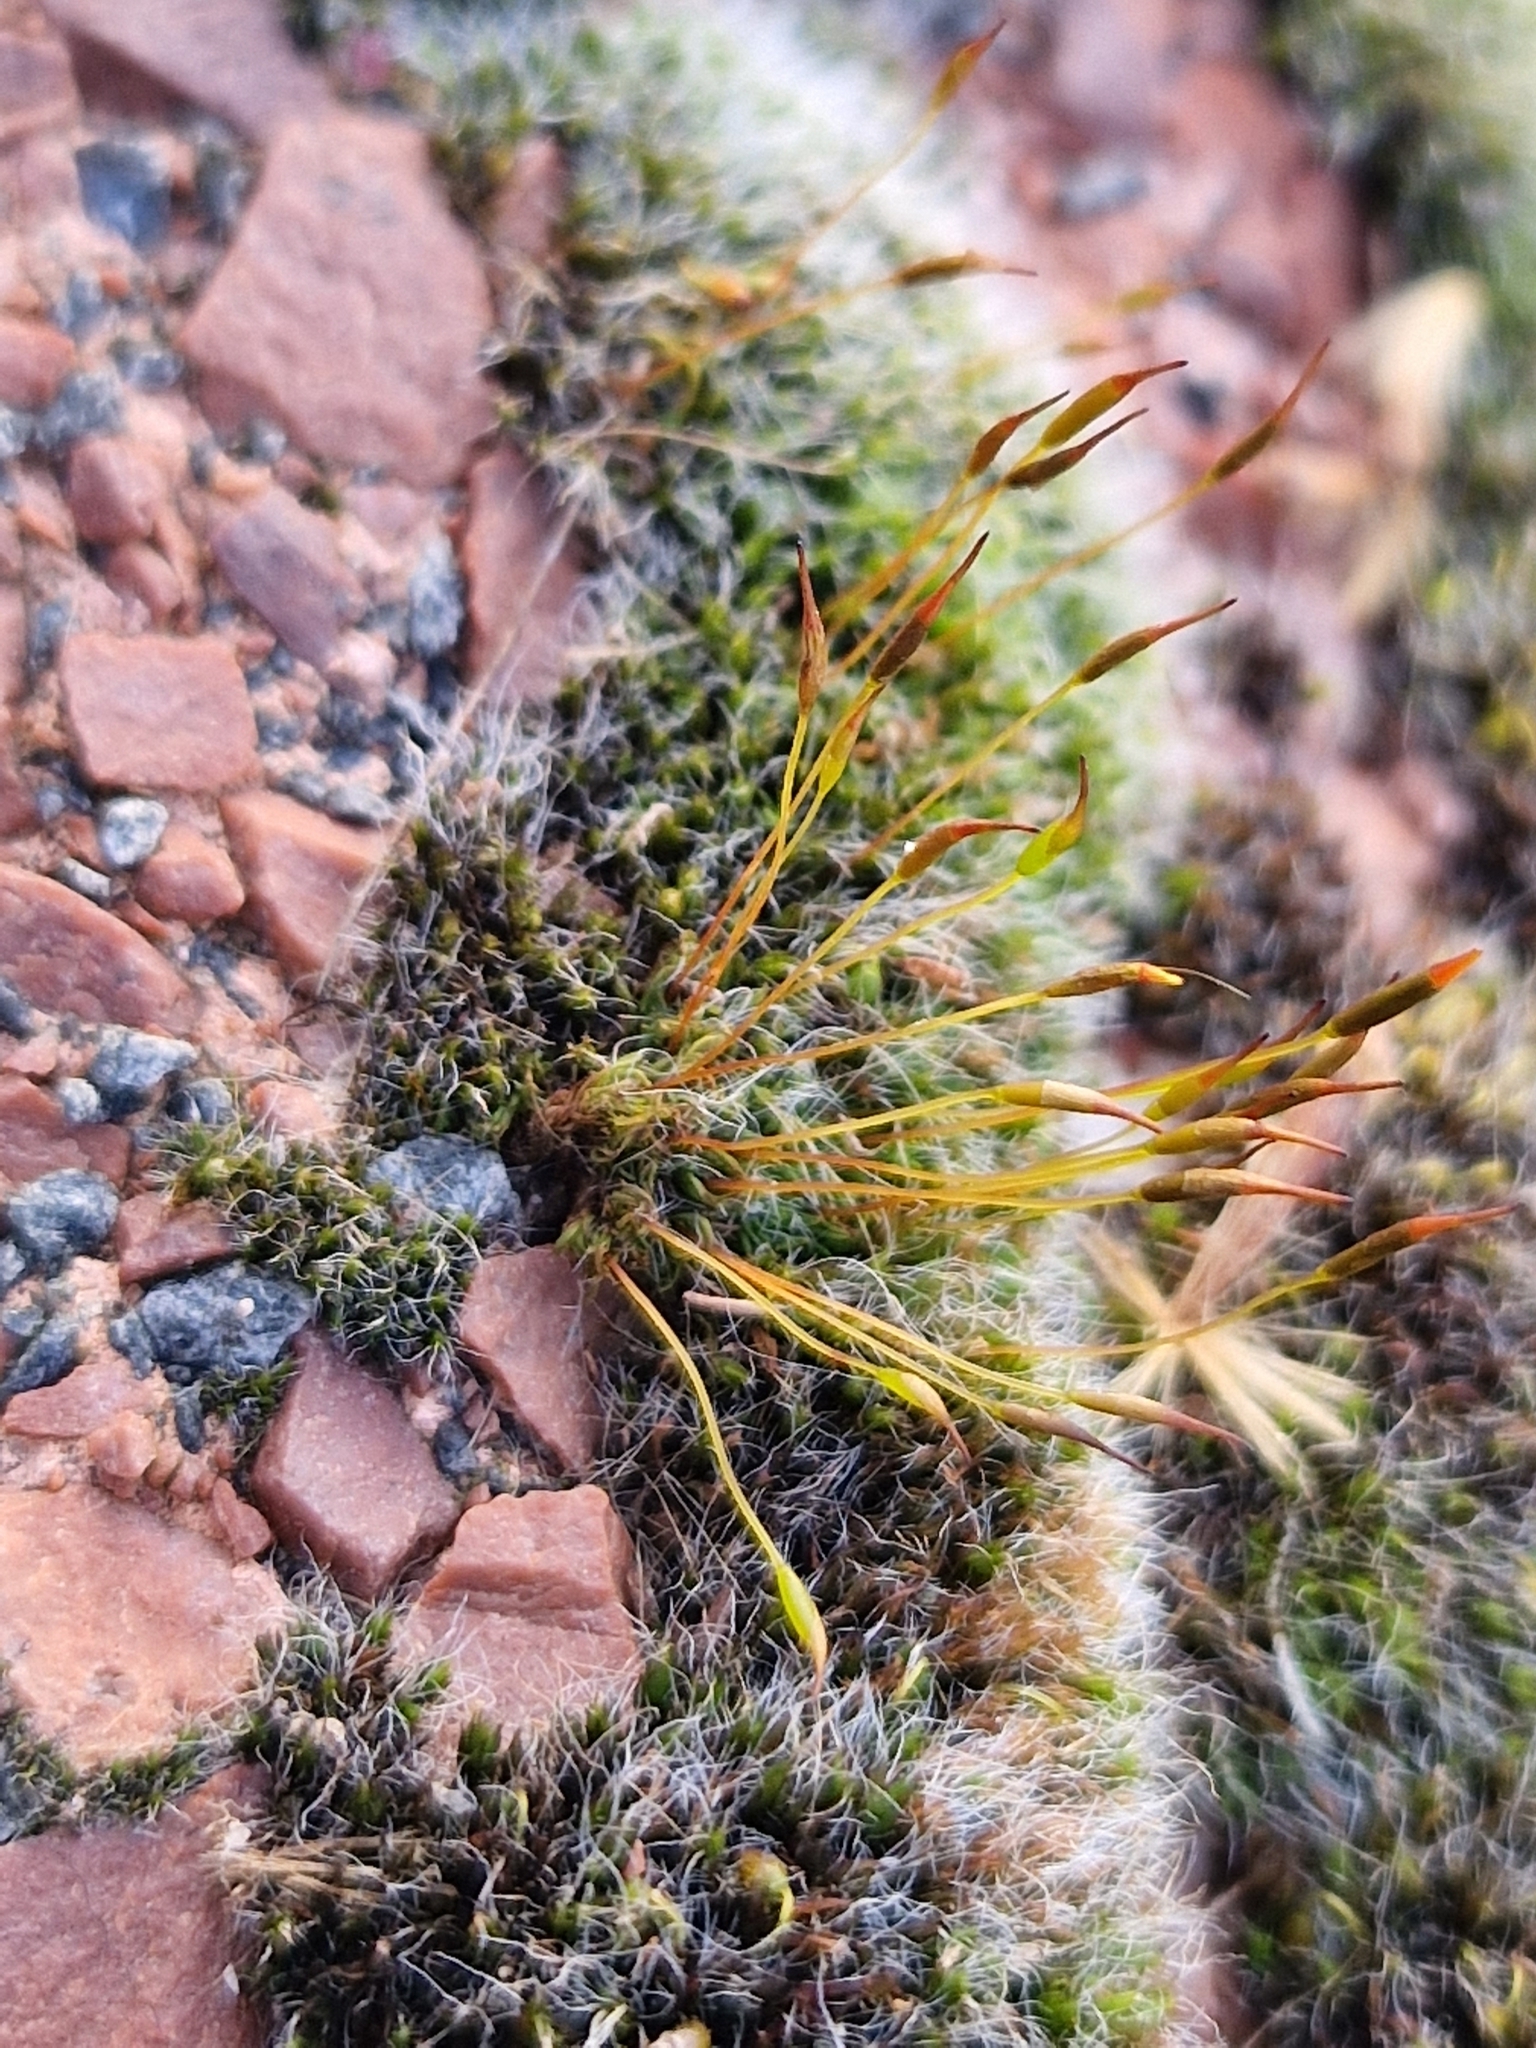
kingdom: Plantae
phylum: Bryophyta
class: Bryopsida
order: Pottiales
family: Pottiaceae
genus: Tortula
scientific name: Tortula muralis
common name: Wall screw-moss
